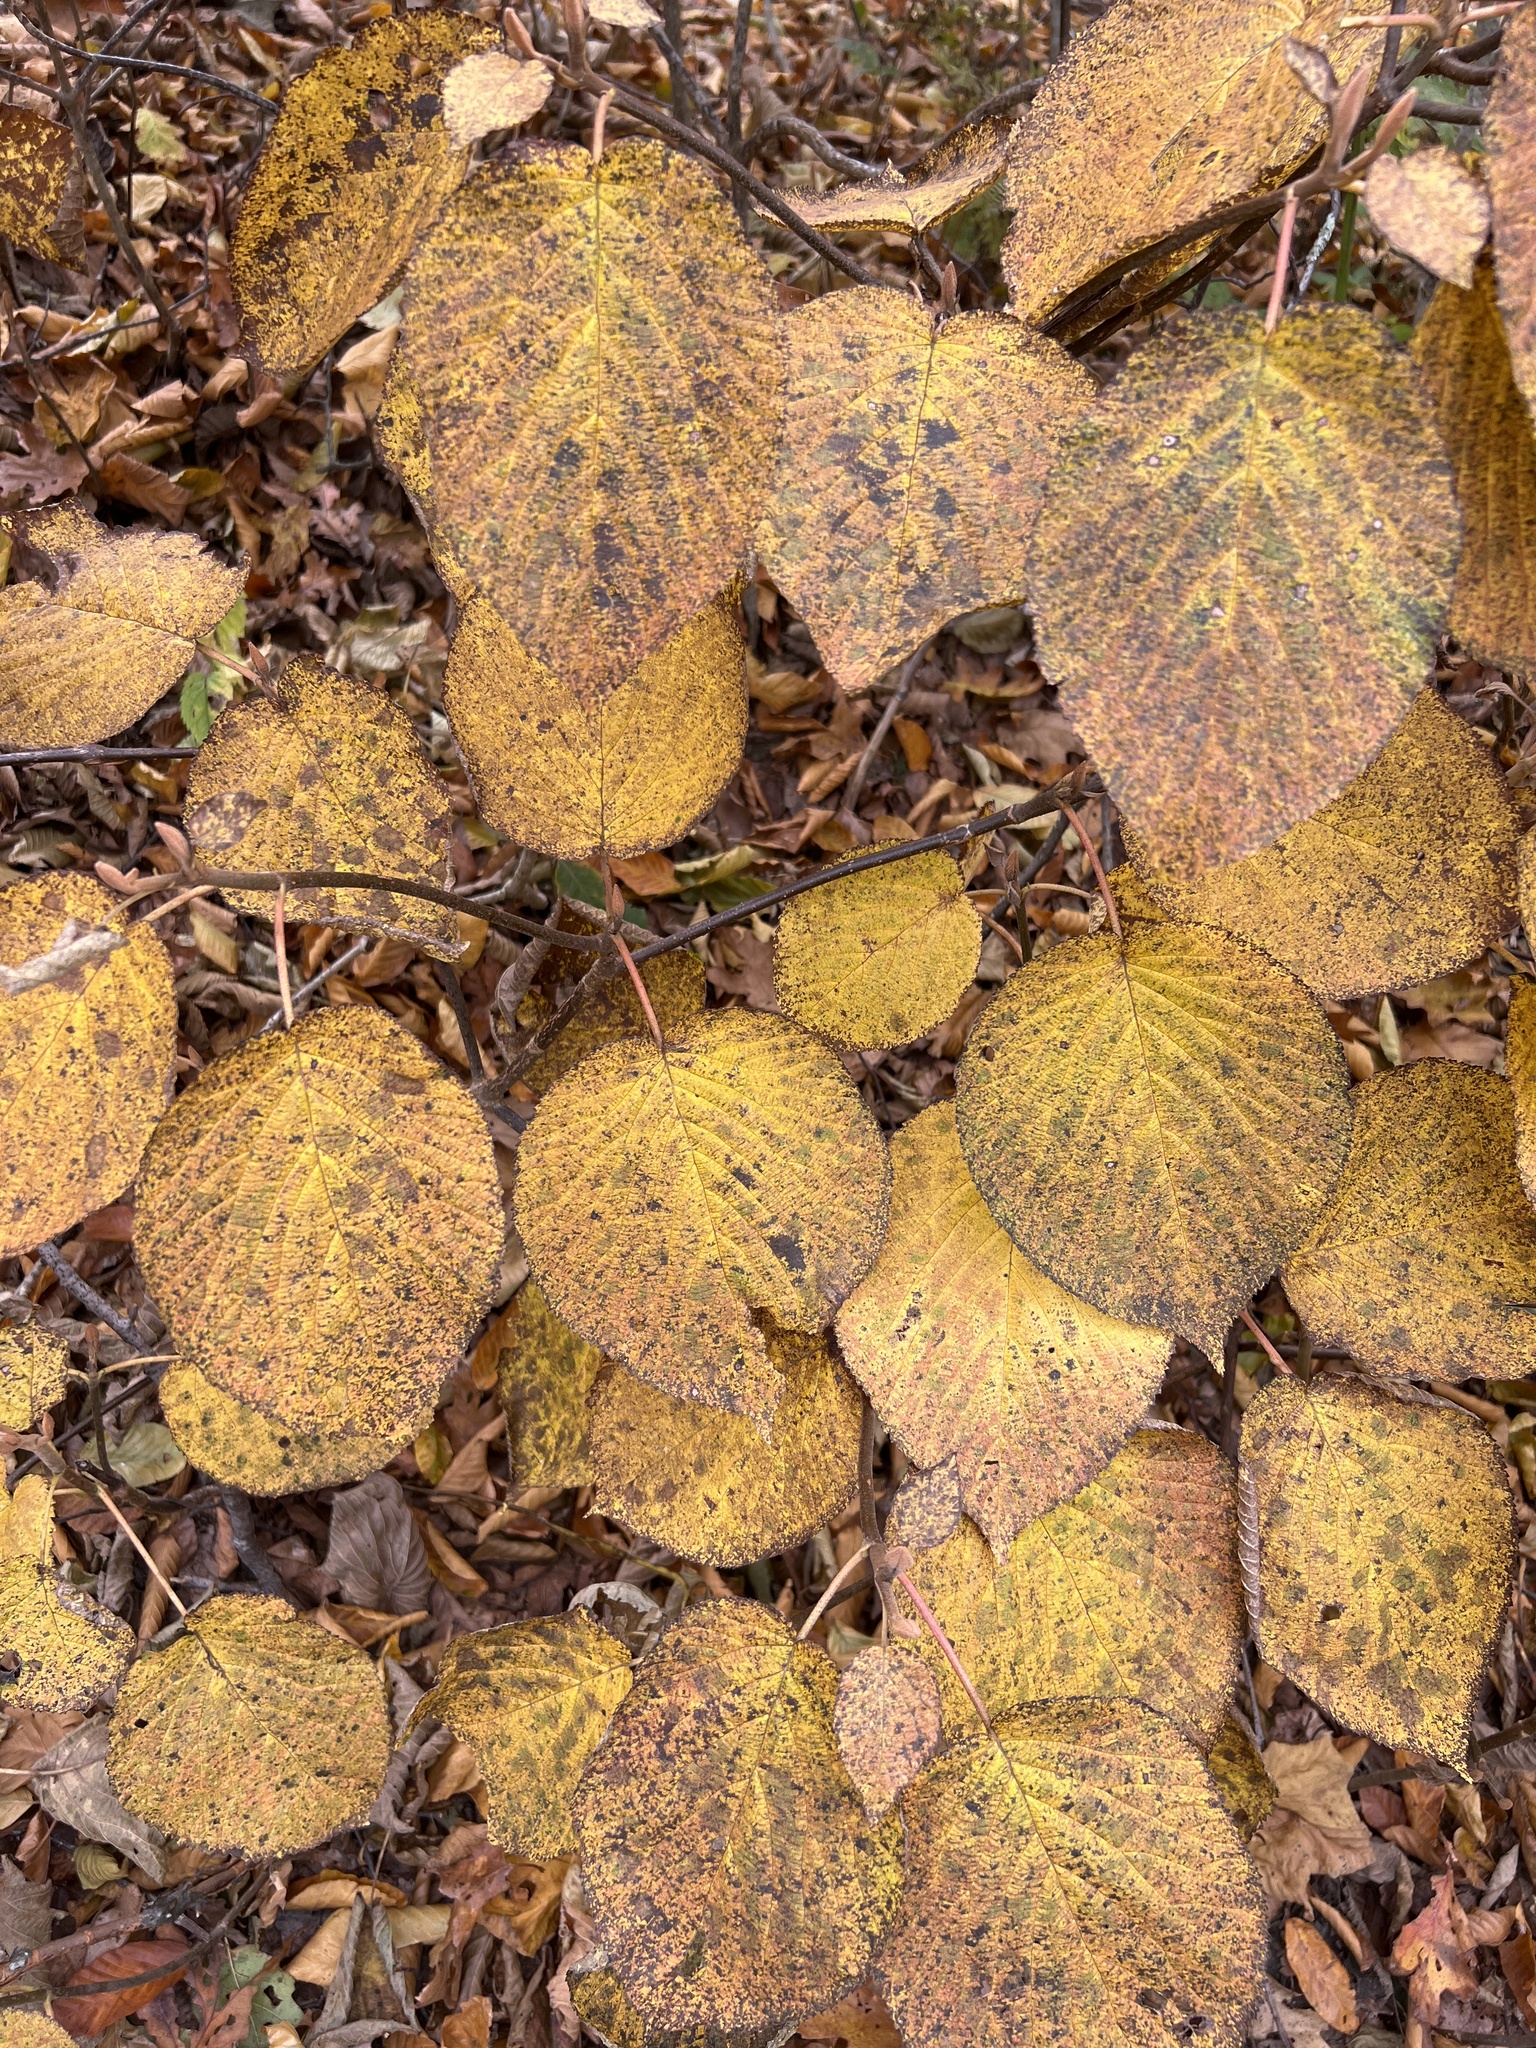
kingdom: Plantae
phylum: Tracheophyta
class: Magnoliopsida
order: Dipsacales
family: Viburnaceae
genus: Viburnum
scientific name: Viburnum lantanoides
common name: Hobblebush
